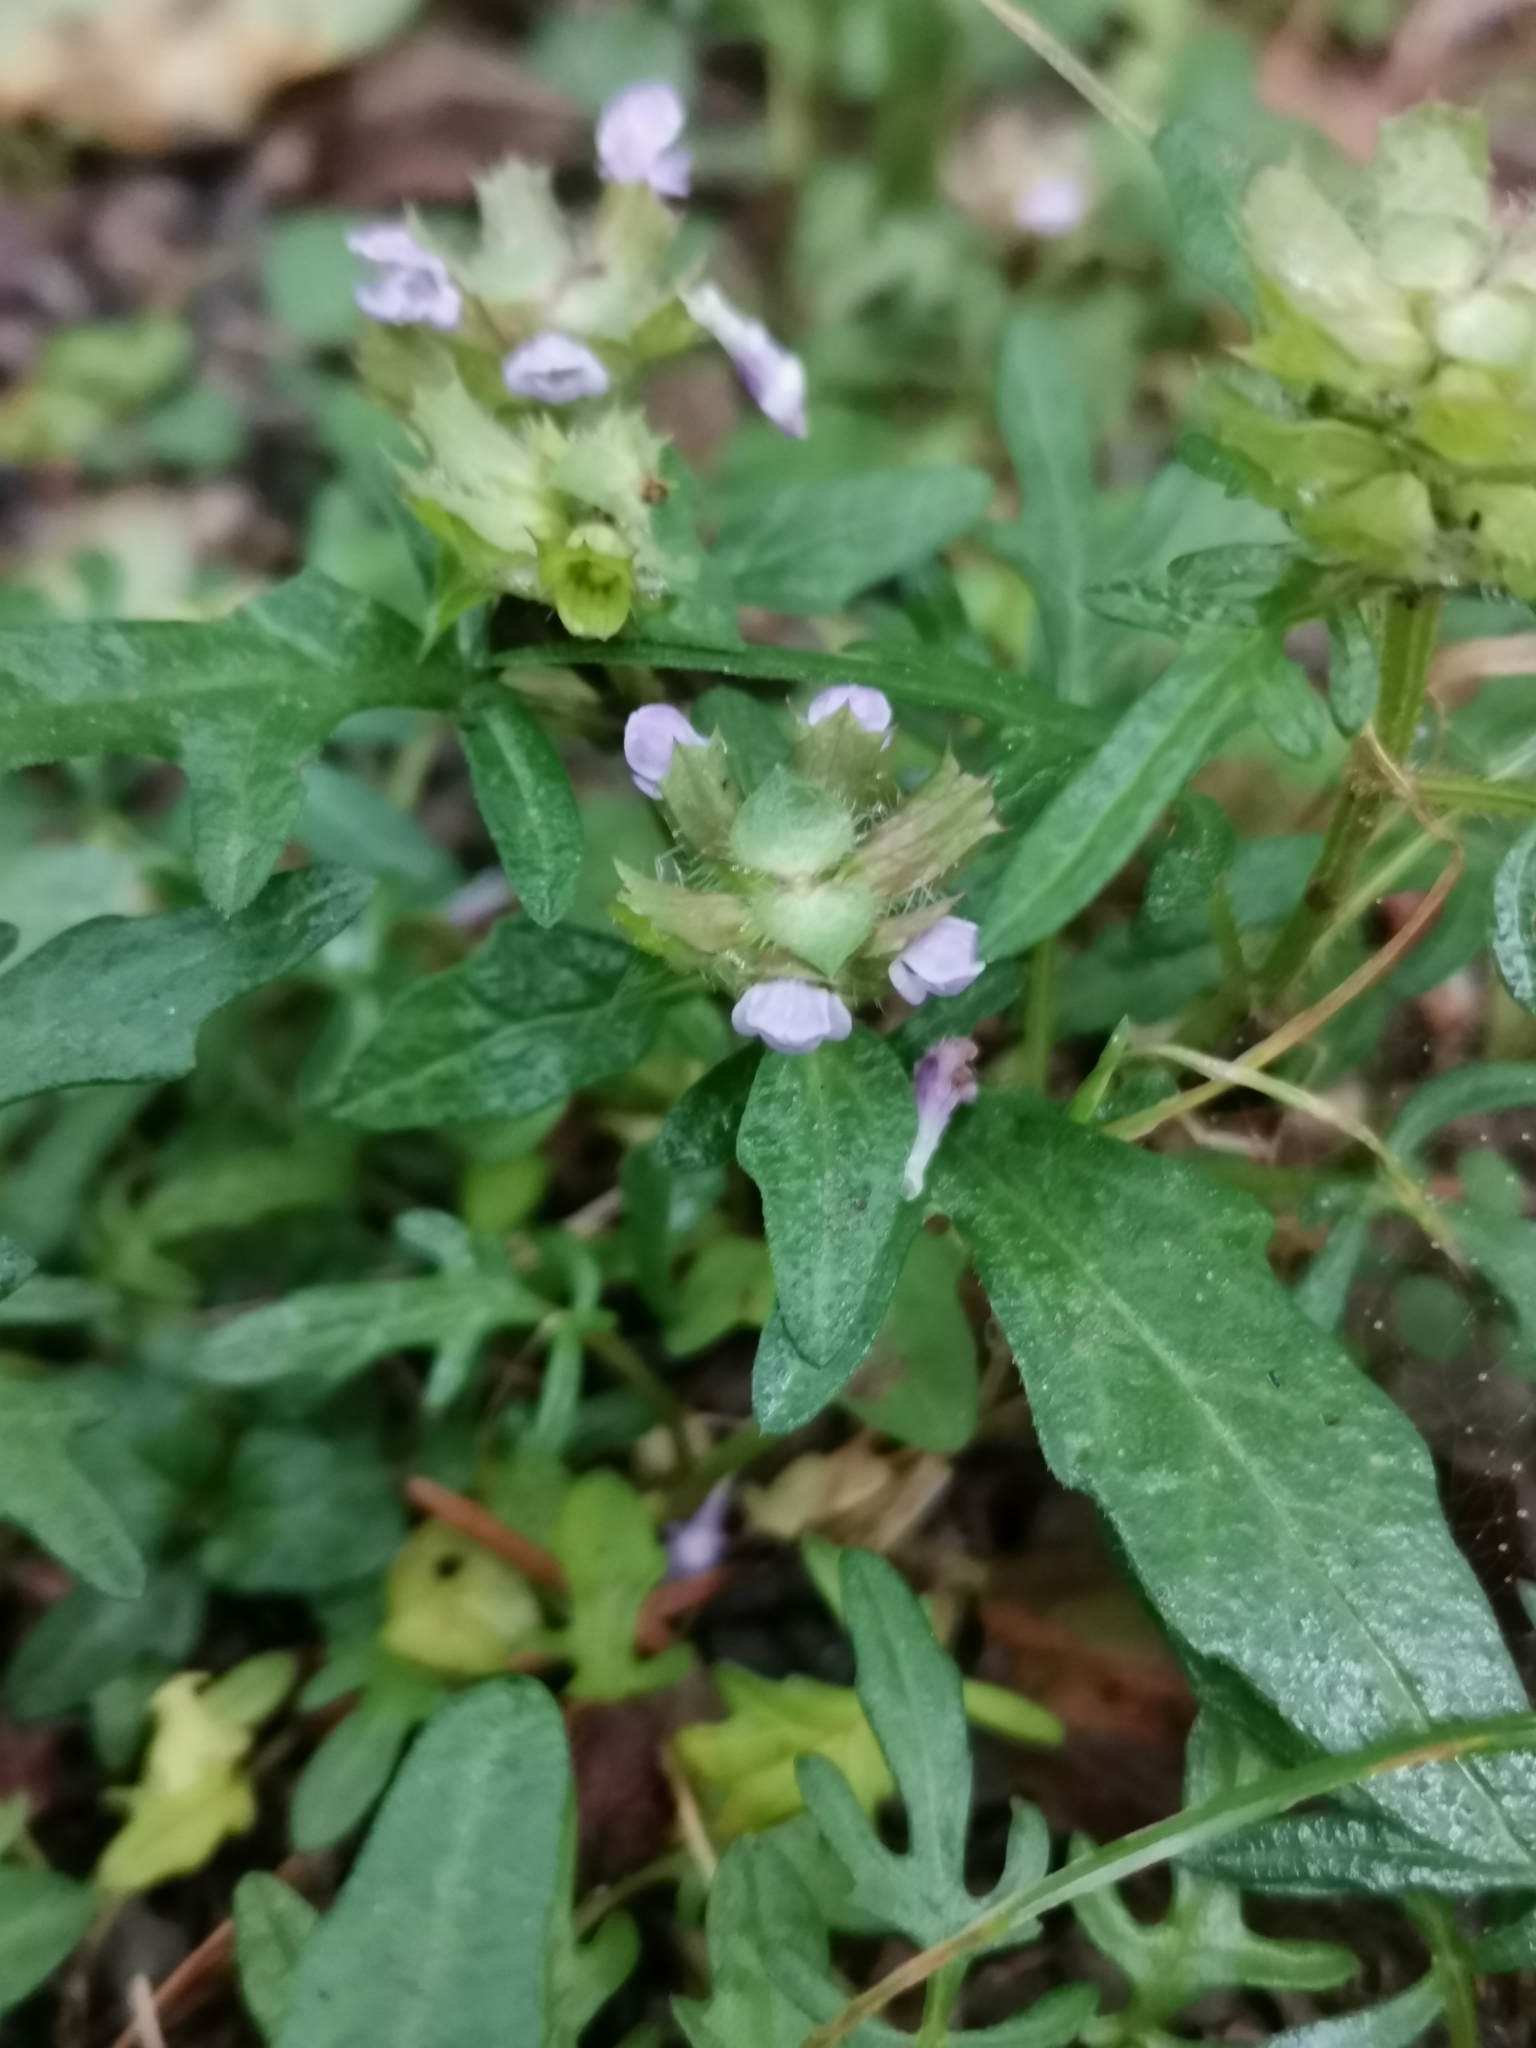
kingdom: Plantae
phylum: Tracheophyta
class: Magnoliopsida
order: Lamiales
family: Lamiaceae
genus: Prunella
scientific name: Prunella intermedia
